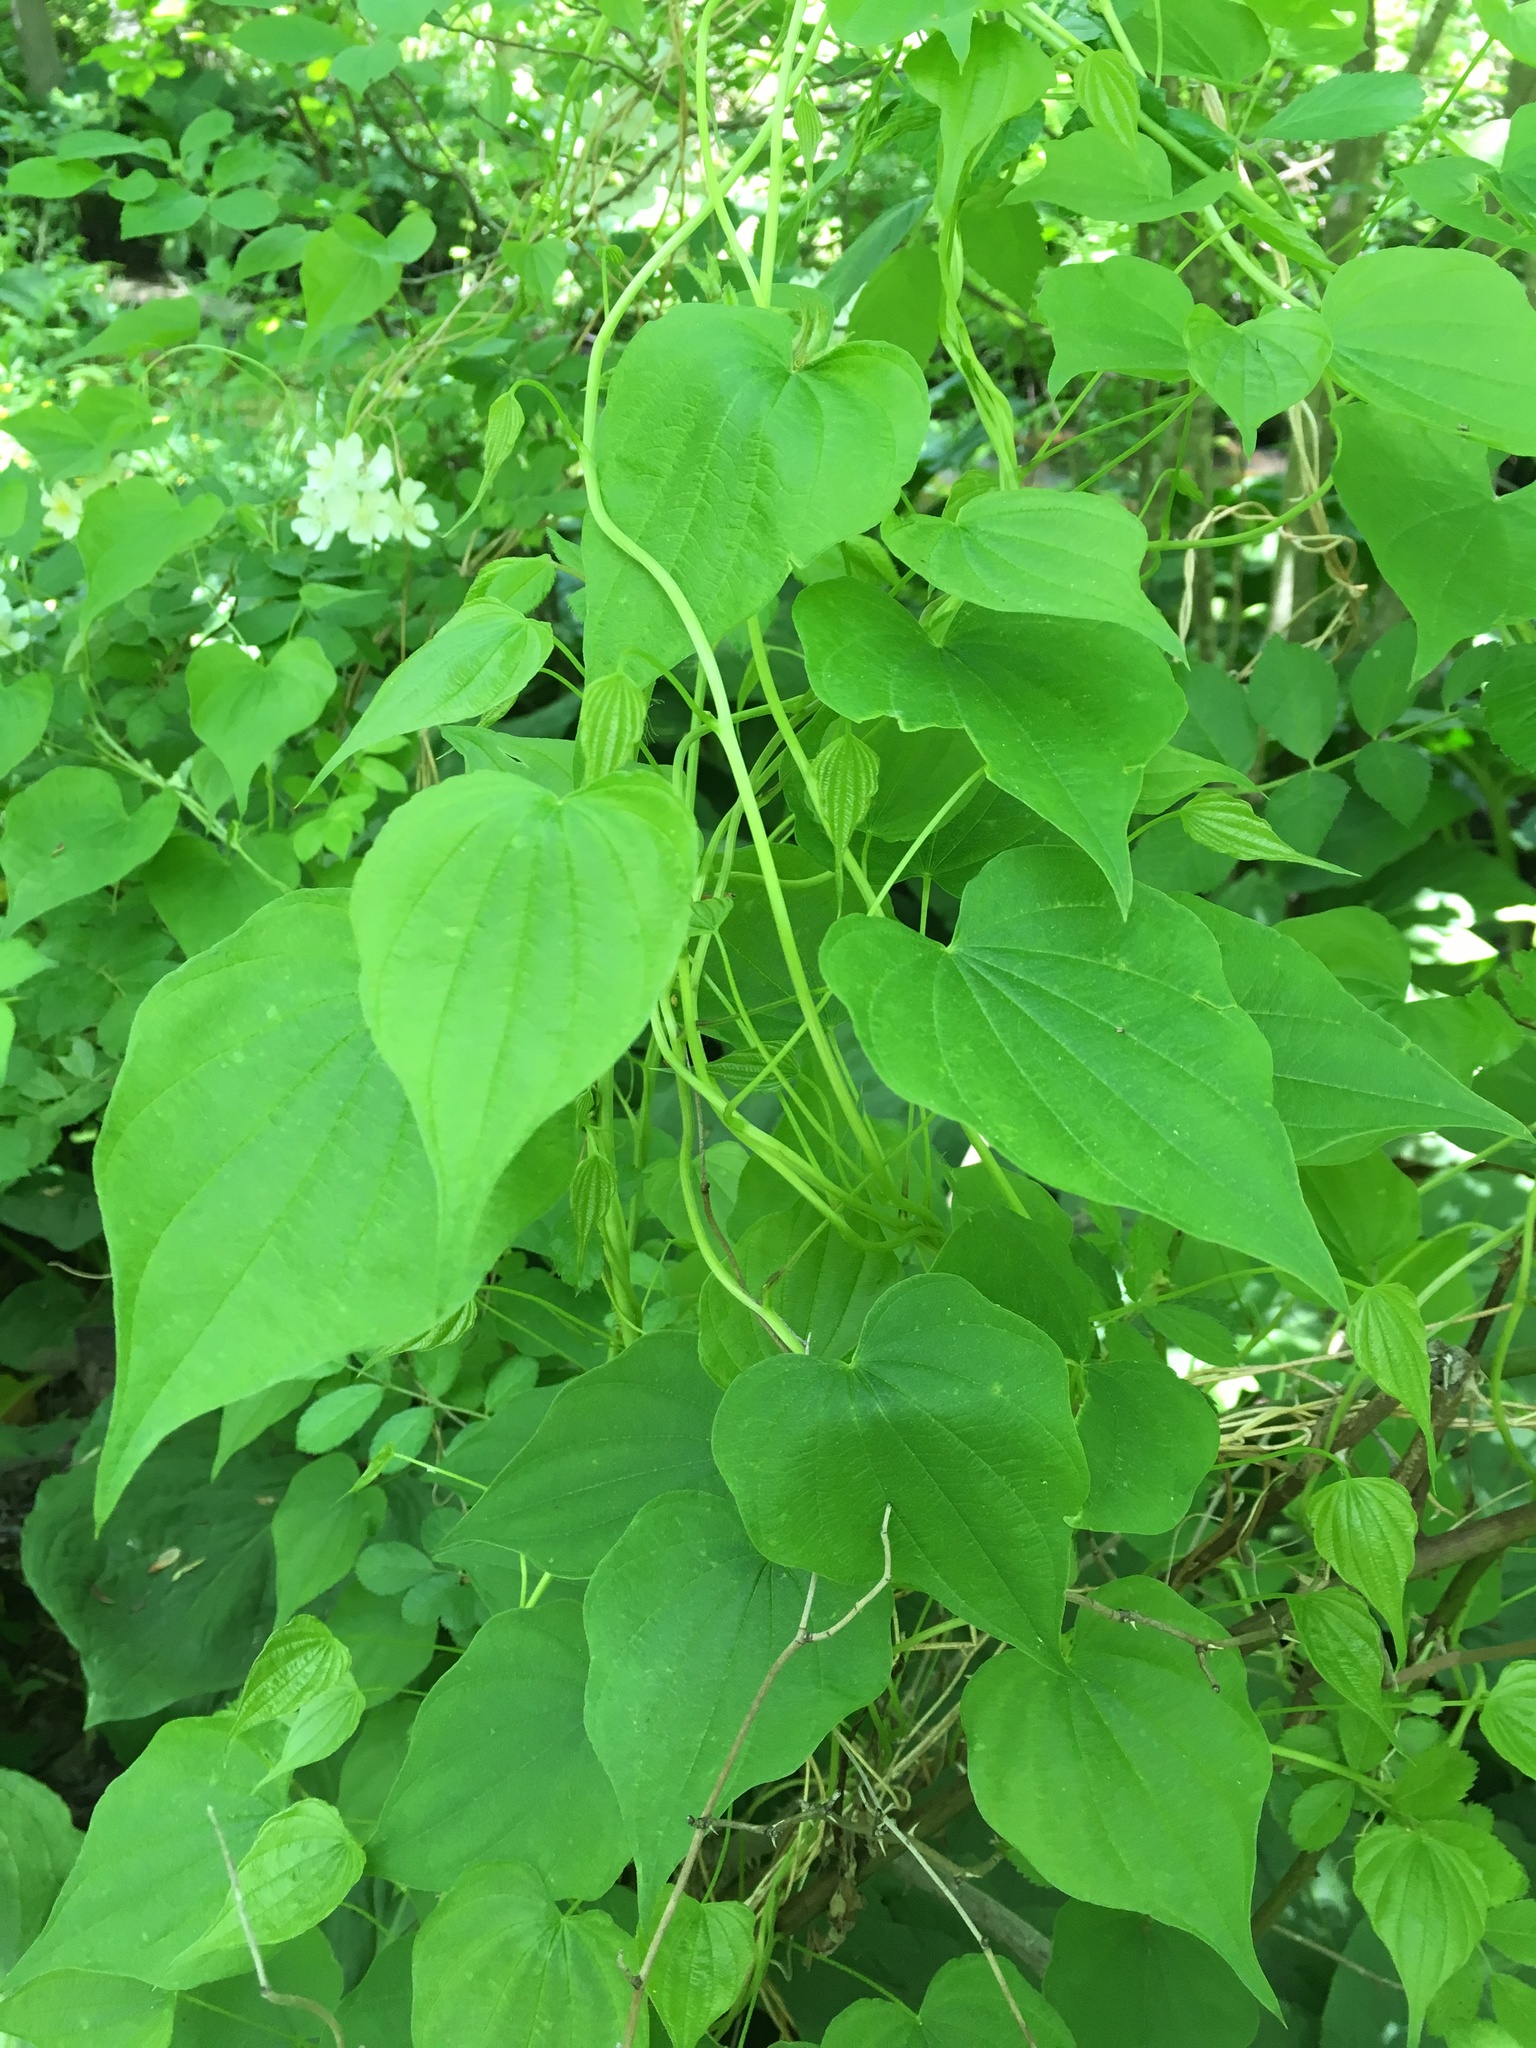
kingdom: Plantae
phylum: Tracheophyta
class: Liliopsida
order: Dioscoreales
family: Dioscoreaceae
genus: Dioscorea
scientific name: Dioscorea villosa
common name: Wild yam
